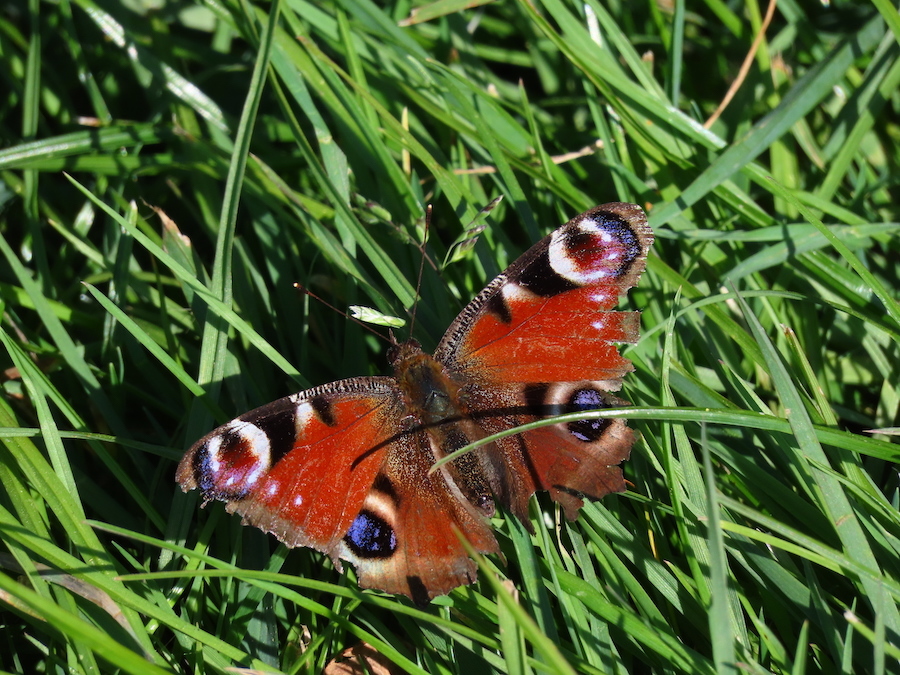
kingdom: Animalia
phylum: Arthropoda
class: Insecta
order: Lepidoptera
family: Nymphalidae
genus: Aglais
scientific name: Aglais io
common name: Peacock
